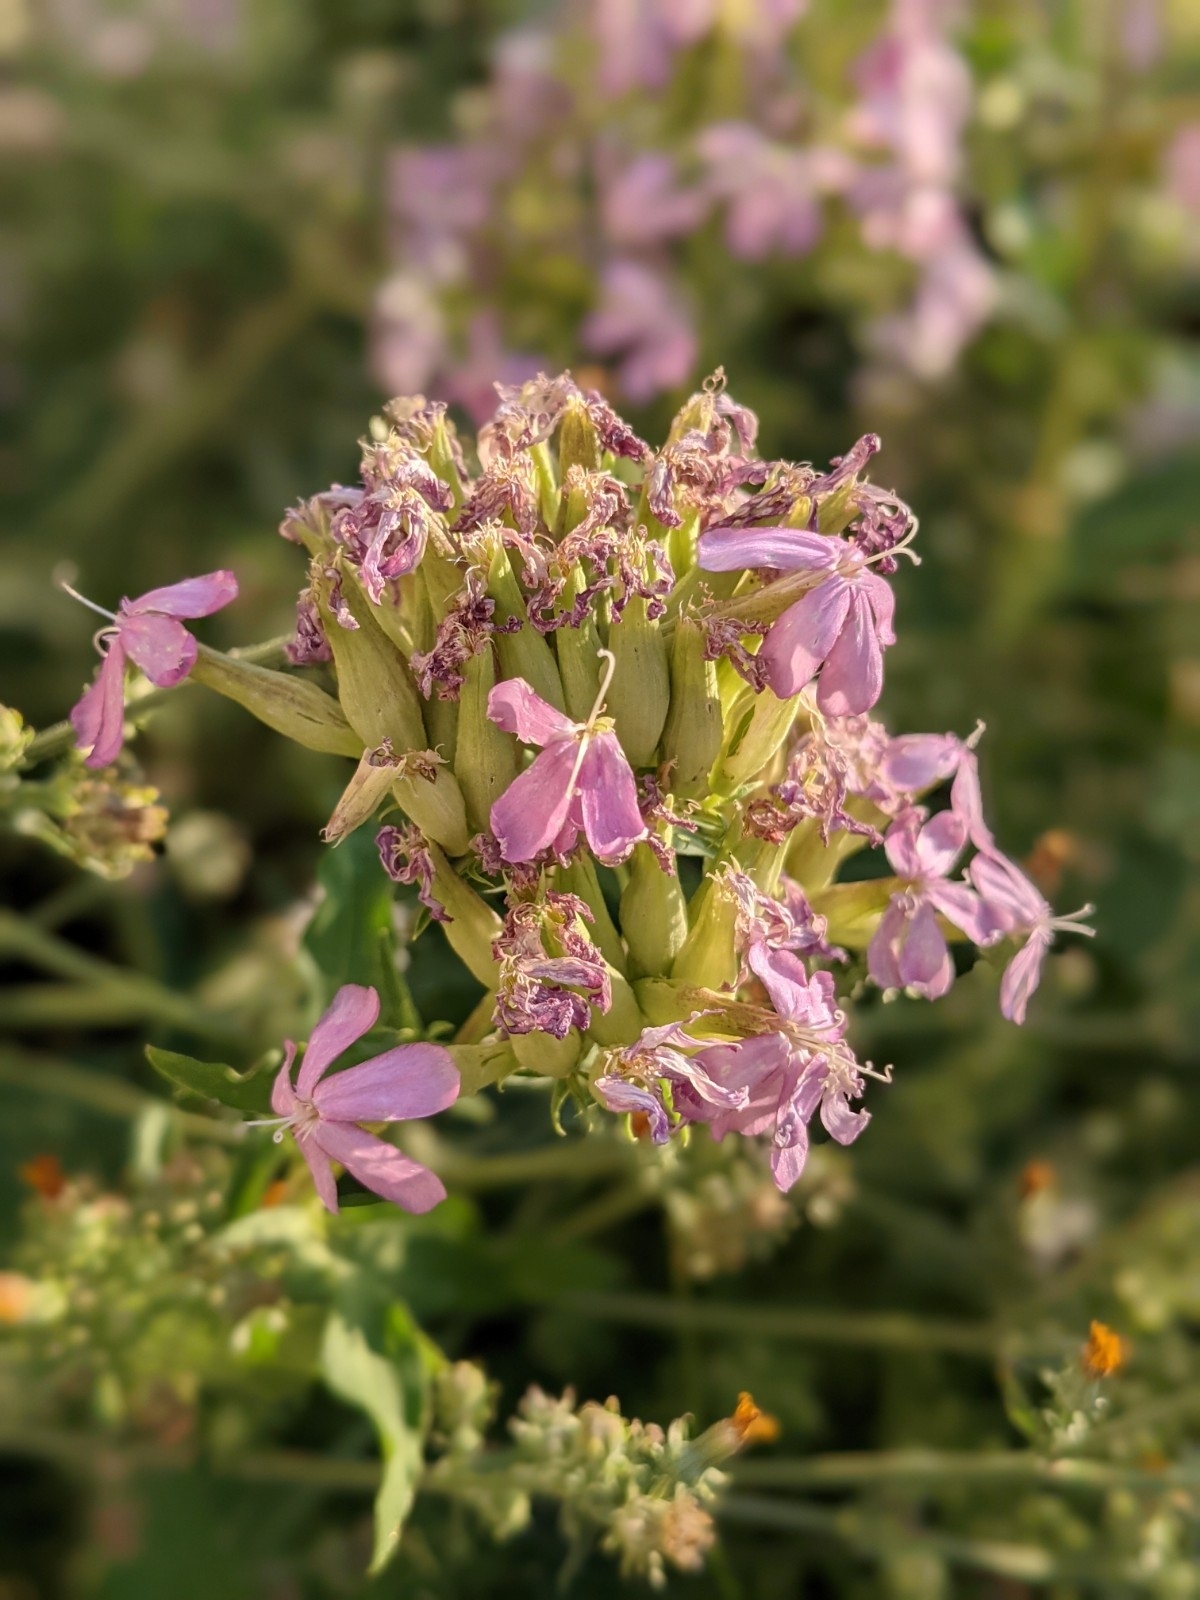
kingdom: Plantae
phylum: Tracheophyta
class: Magnoliopsida
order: Caryophyllales
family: Caryophyllaceae
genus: Saponaria
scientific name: Saponaria officinalis
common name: Soapwort
